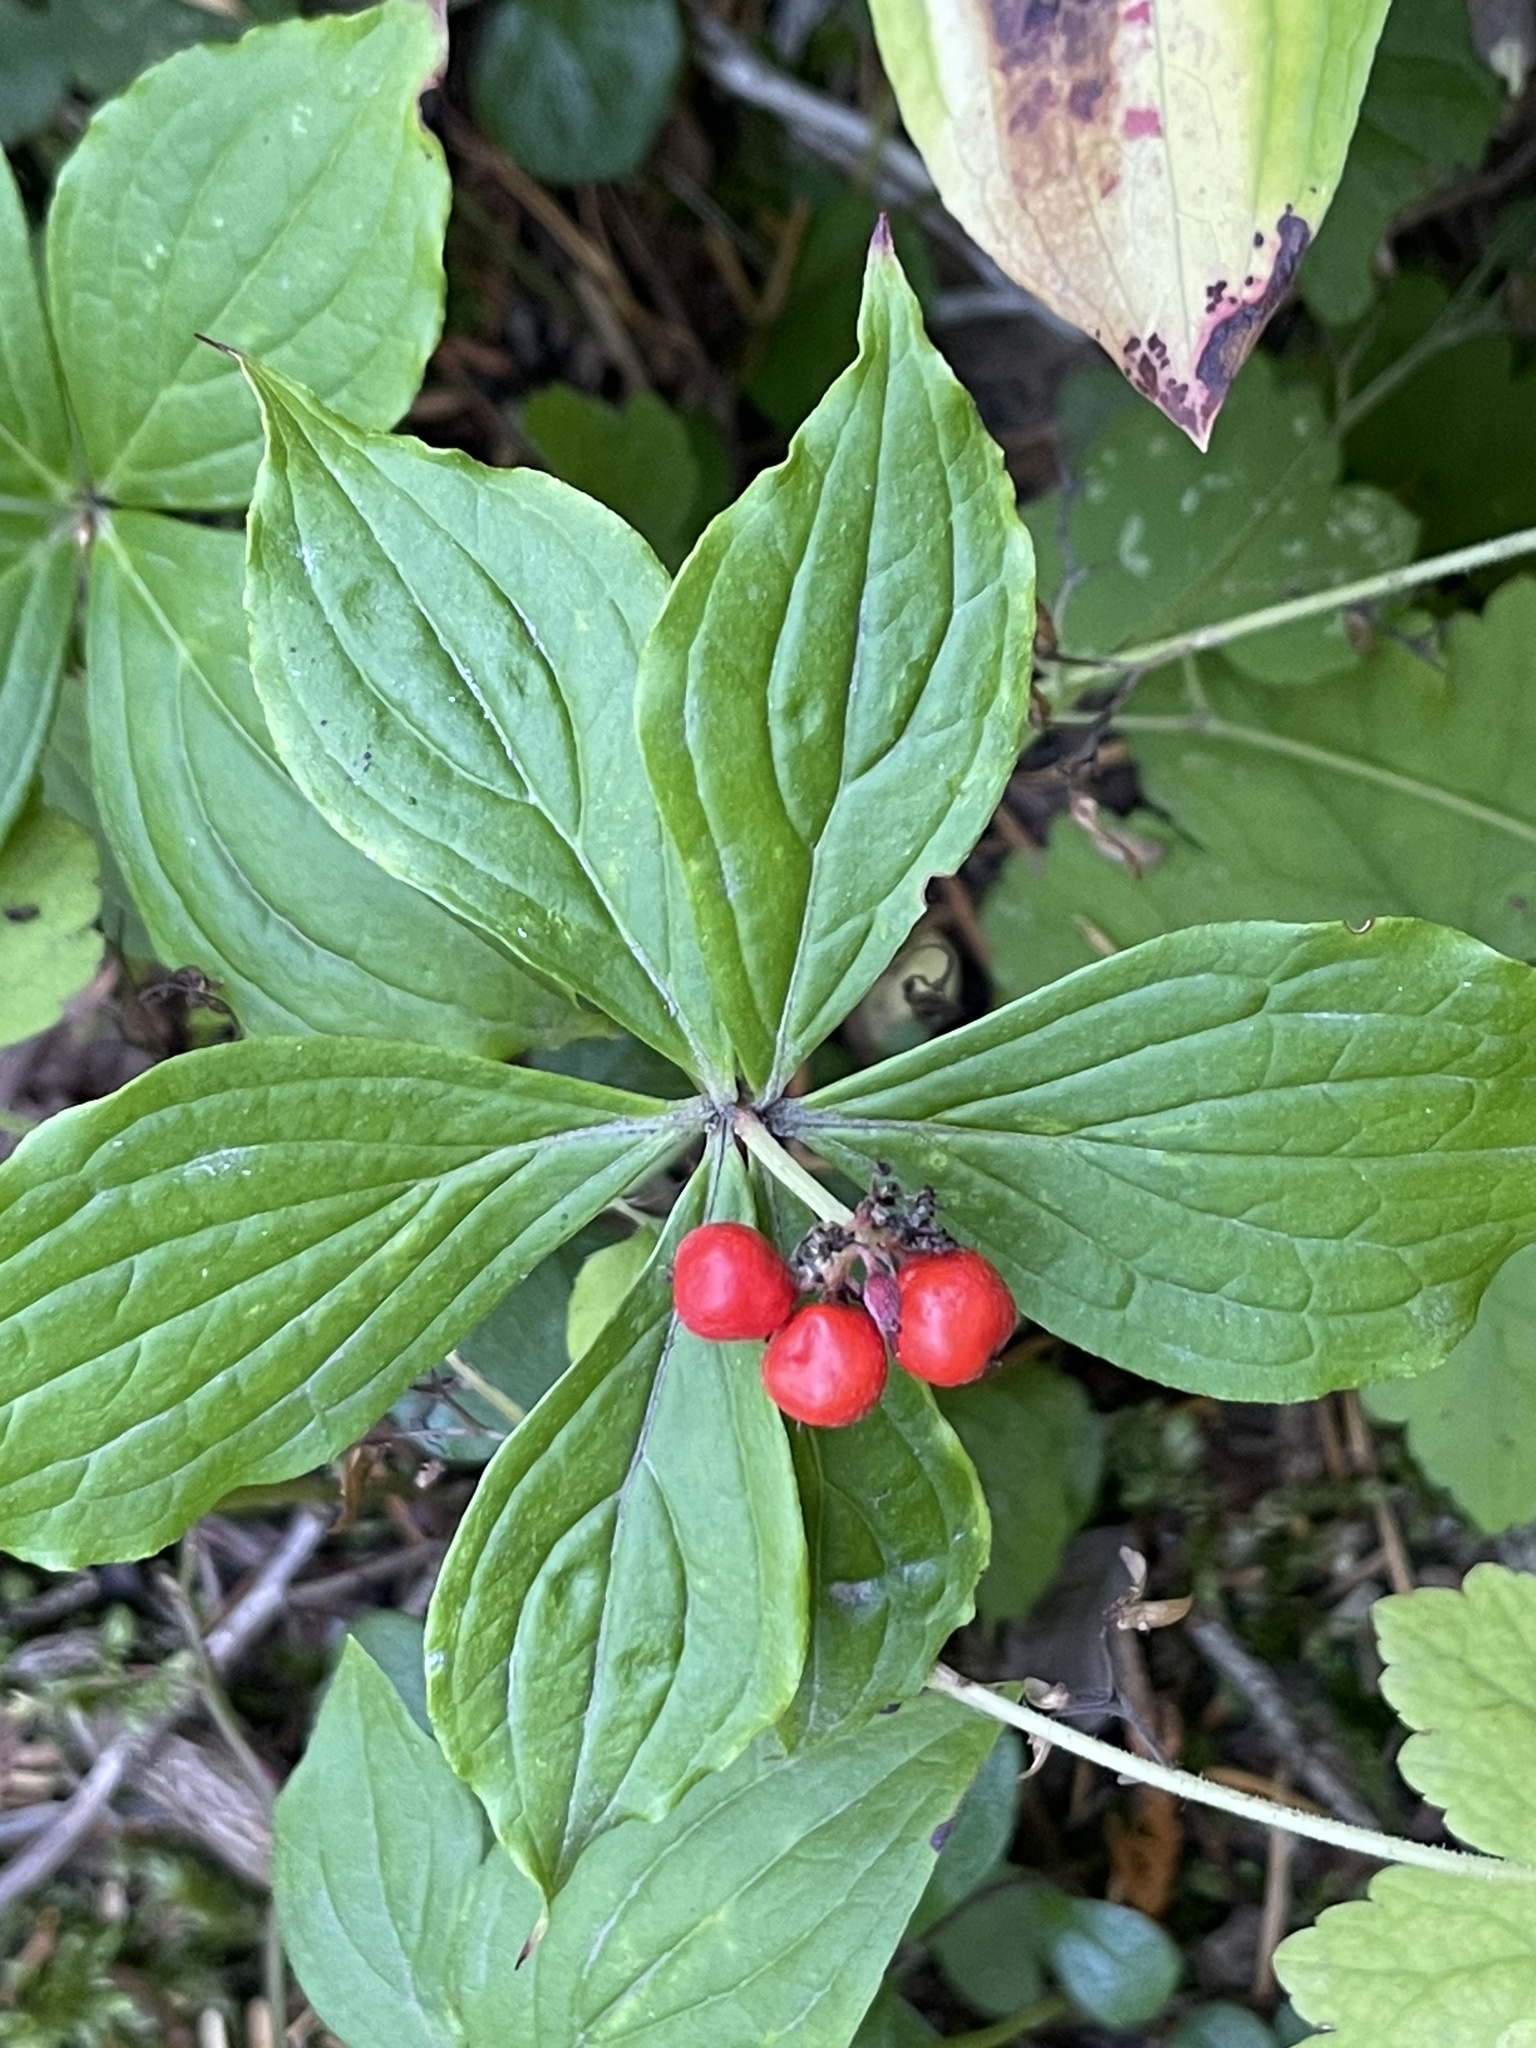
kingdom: Plantae
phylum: Tracheophyta
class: Magnoliopsida
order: Cornales
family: Cornaceae
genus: Cornus
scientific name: Cornus unalaschkensis
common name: Alaska bunchberry
